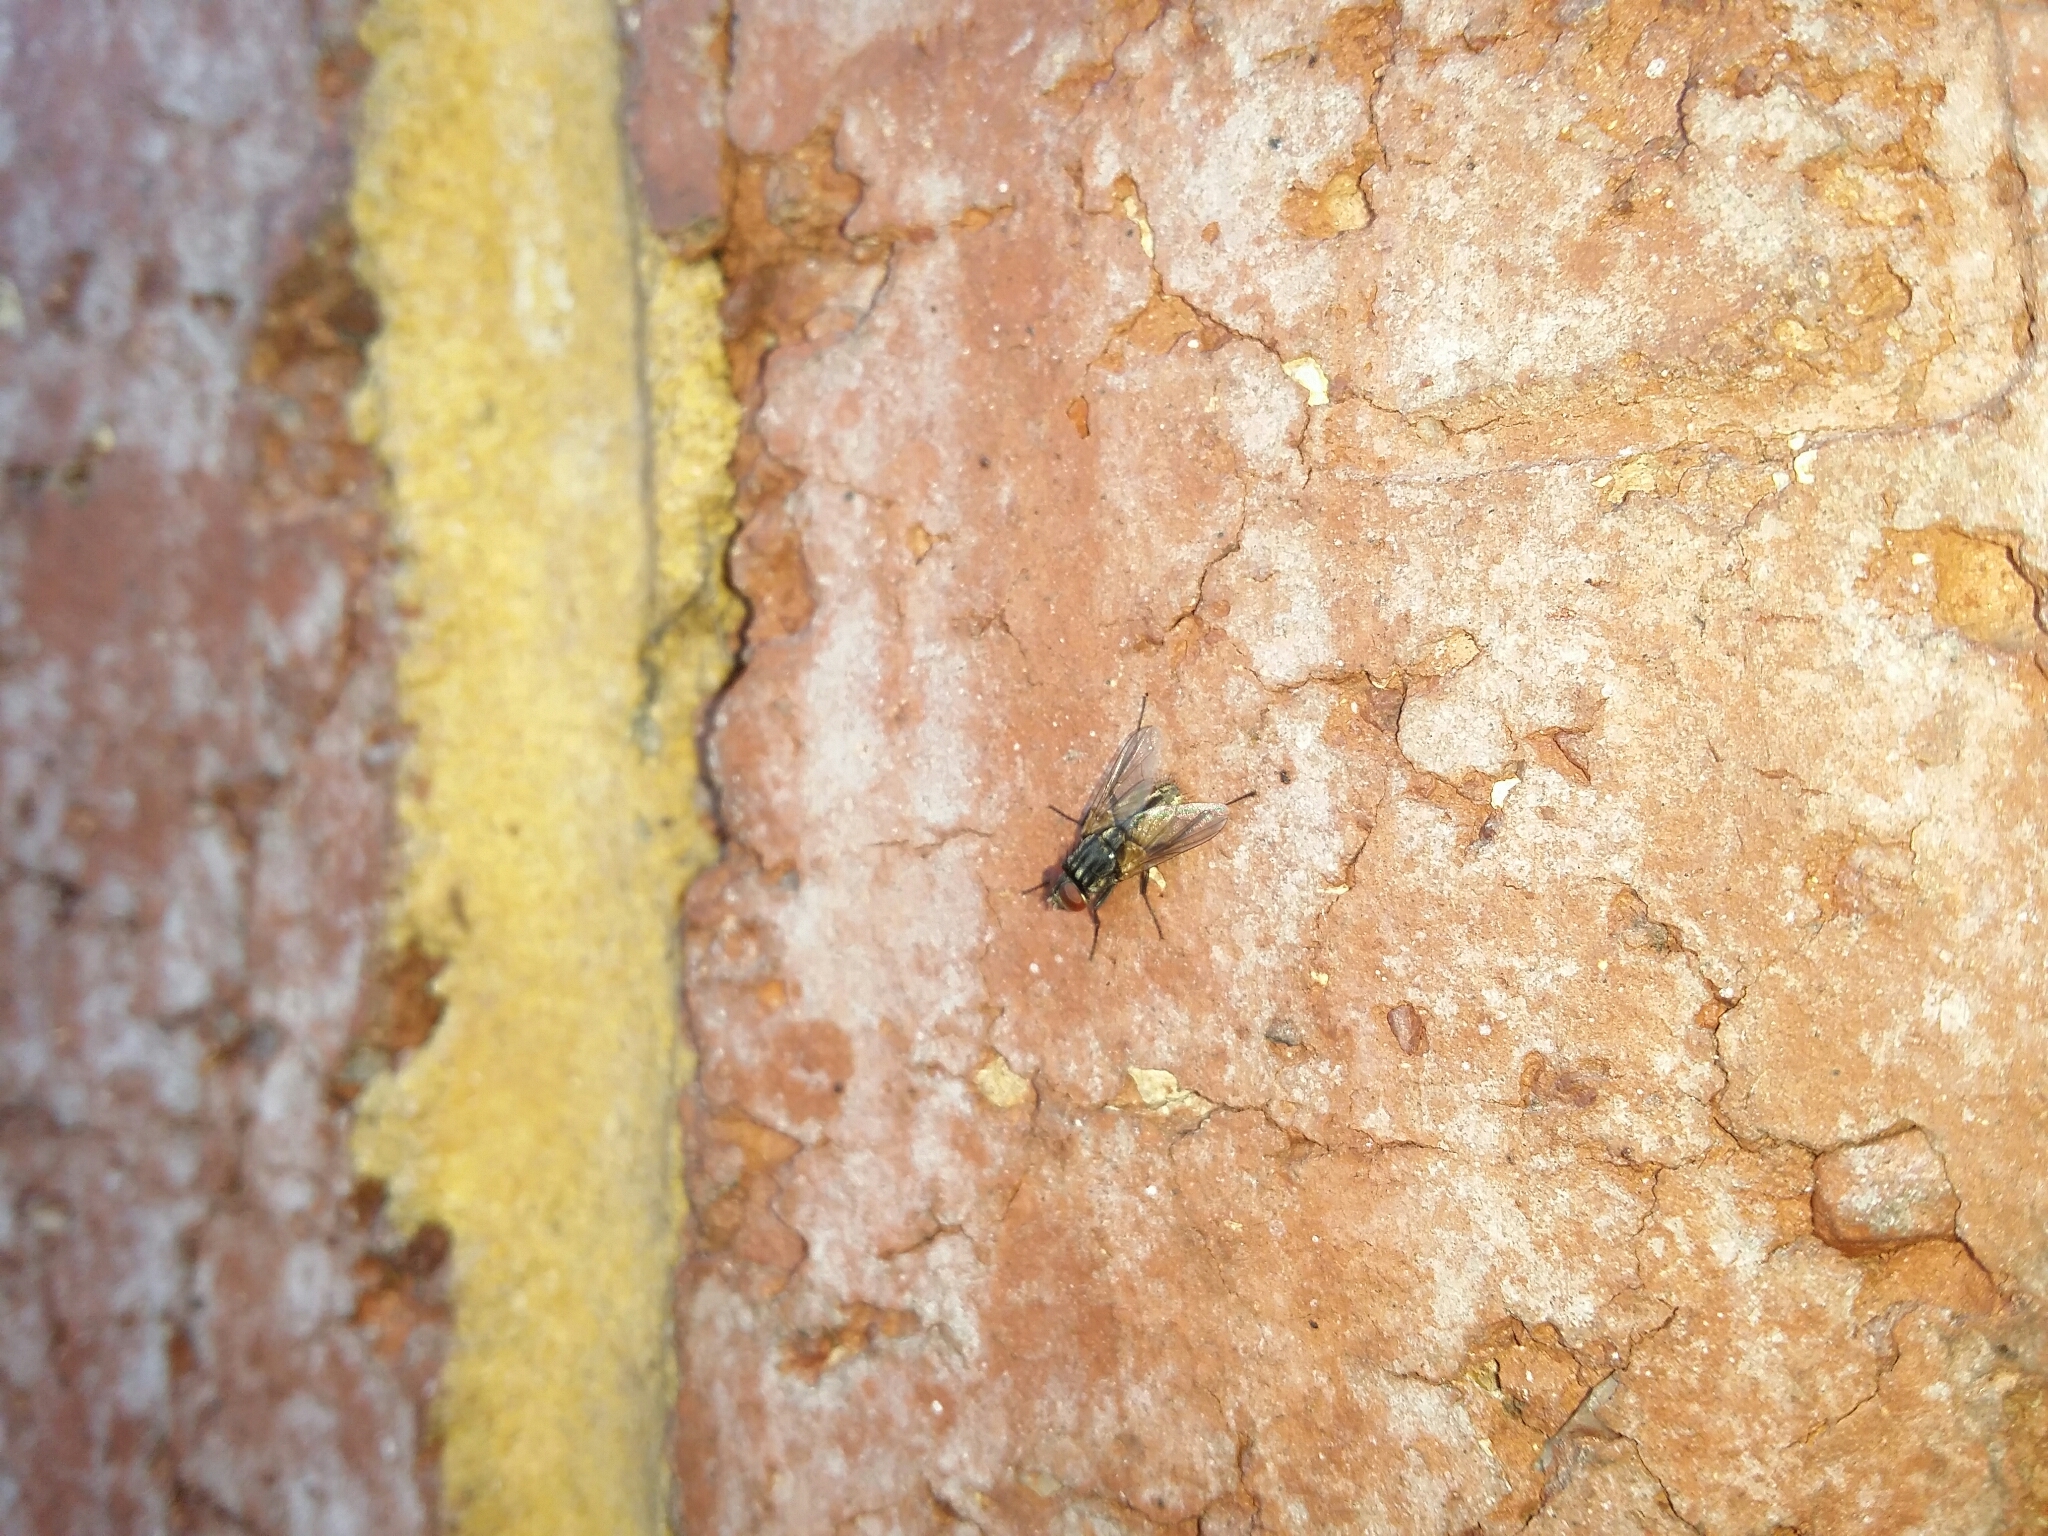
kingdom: Animalia
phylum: Arthropoda
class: Insecta
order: Diptera
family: Muscidae
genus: Musca
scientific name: Musca domestica
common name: House fly
